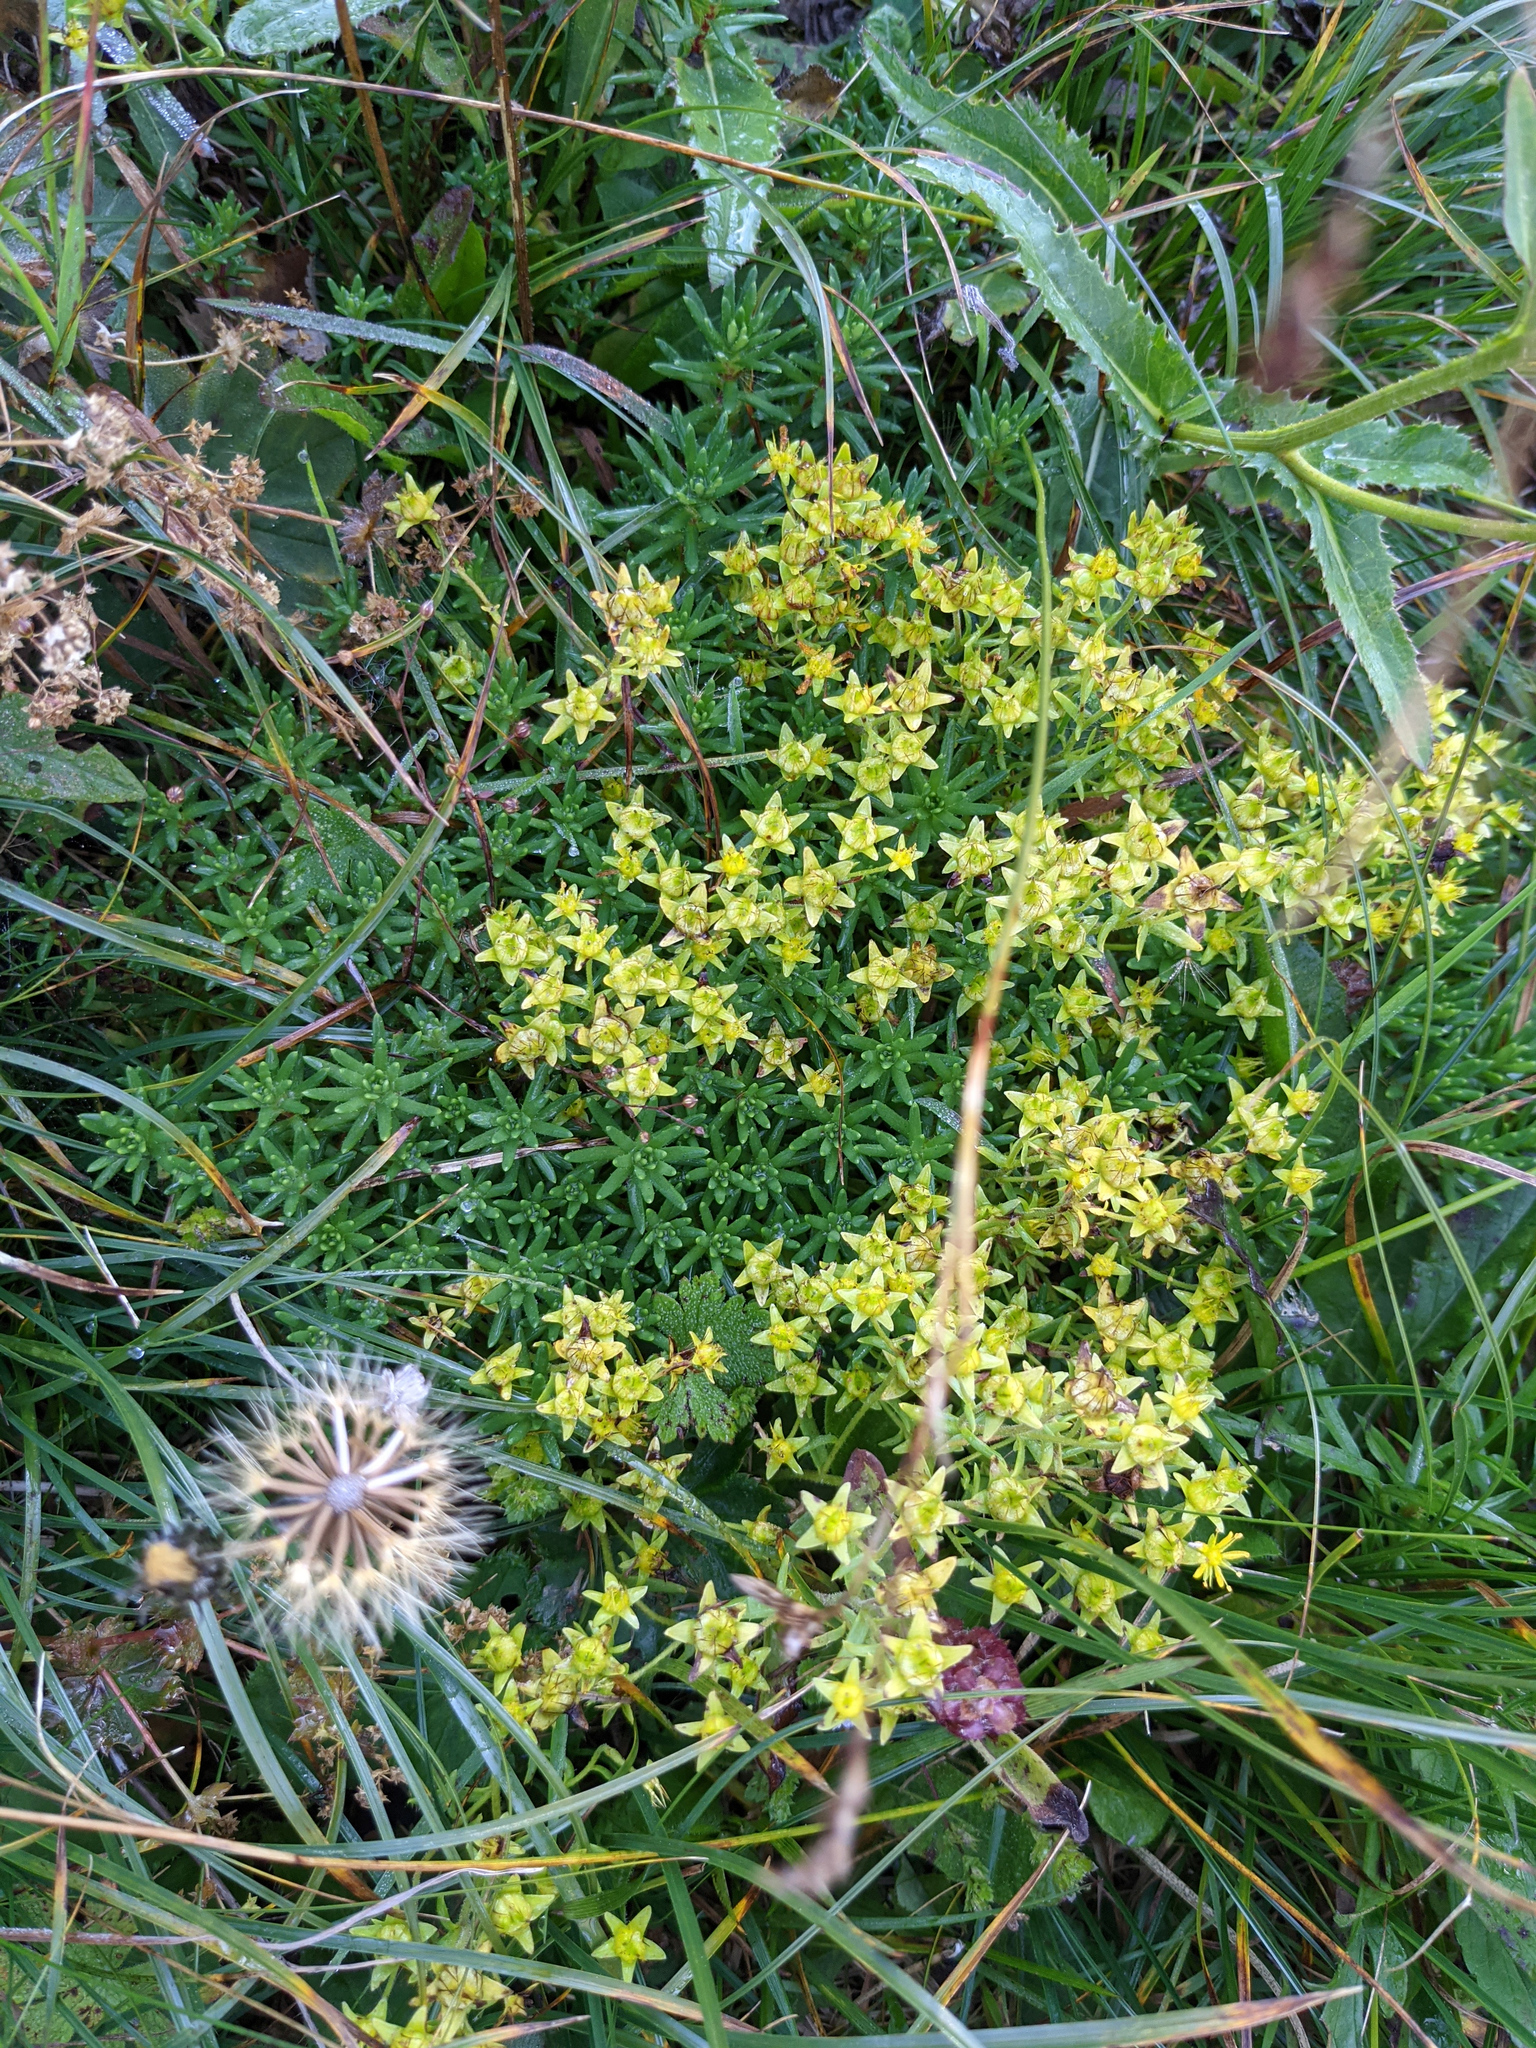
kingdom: Plantae
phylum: Tracheophyta
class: Magnoliopsida
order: Saxifragales
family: Saxifragaceae
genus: Saxifraga
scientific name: Saxifraga aizoides
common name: Yellow mountain saxifrage
